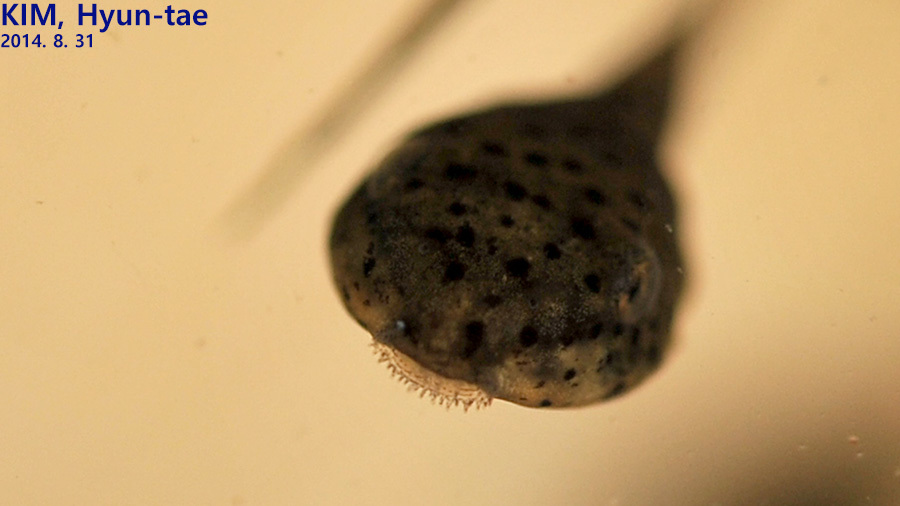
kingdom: Animalia
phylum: Chordata
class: Amphibia
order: Anura
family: Ranidae
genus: Lithobates
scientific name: Lithobates catesbeianus
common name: American bullfrog
